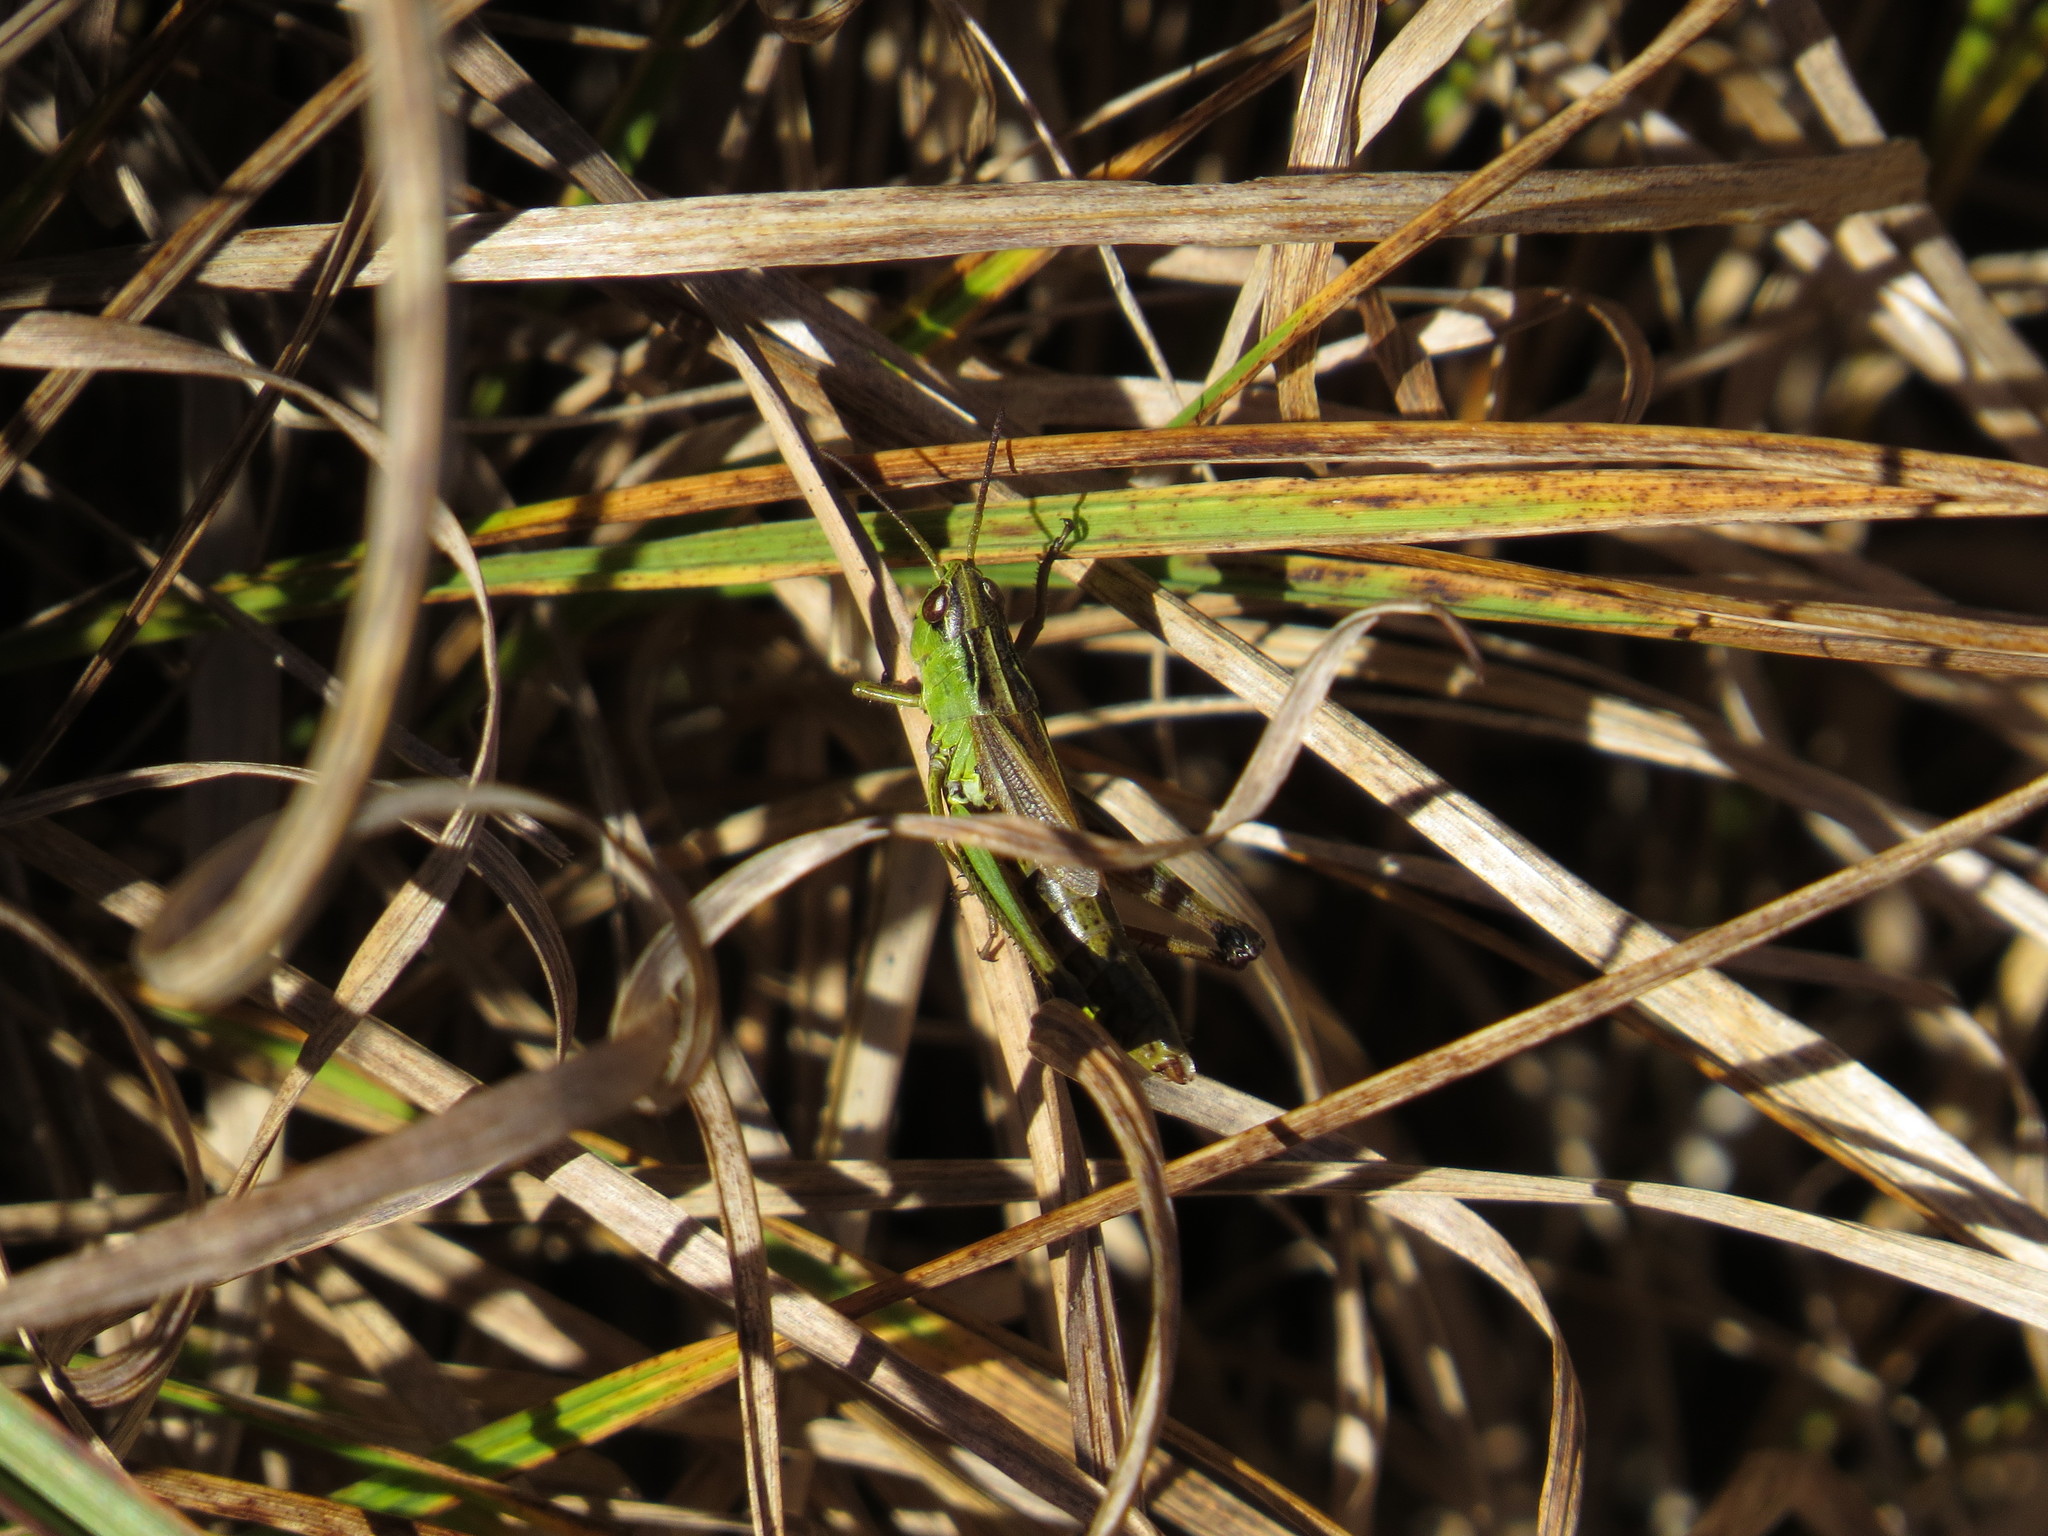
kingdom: Animalia
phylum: Arthropoda
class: Insecta
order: Orthoptera
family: Acrididae
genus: Pseudochorthippus
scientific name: Pseudochorthippus montanus
